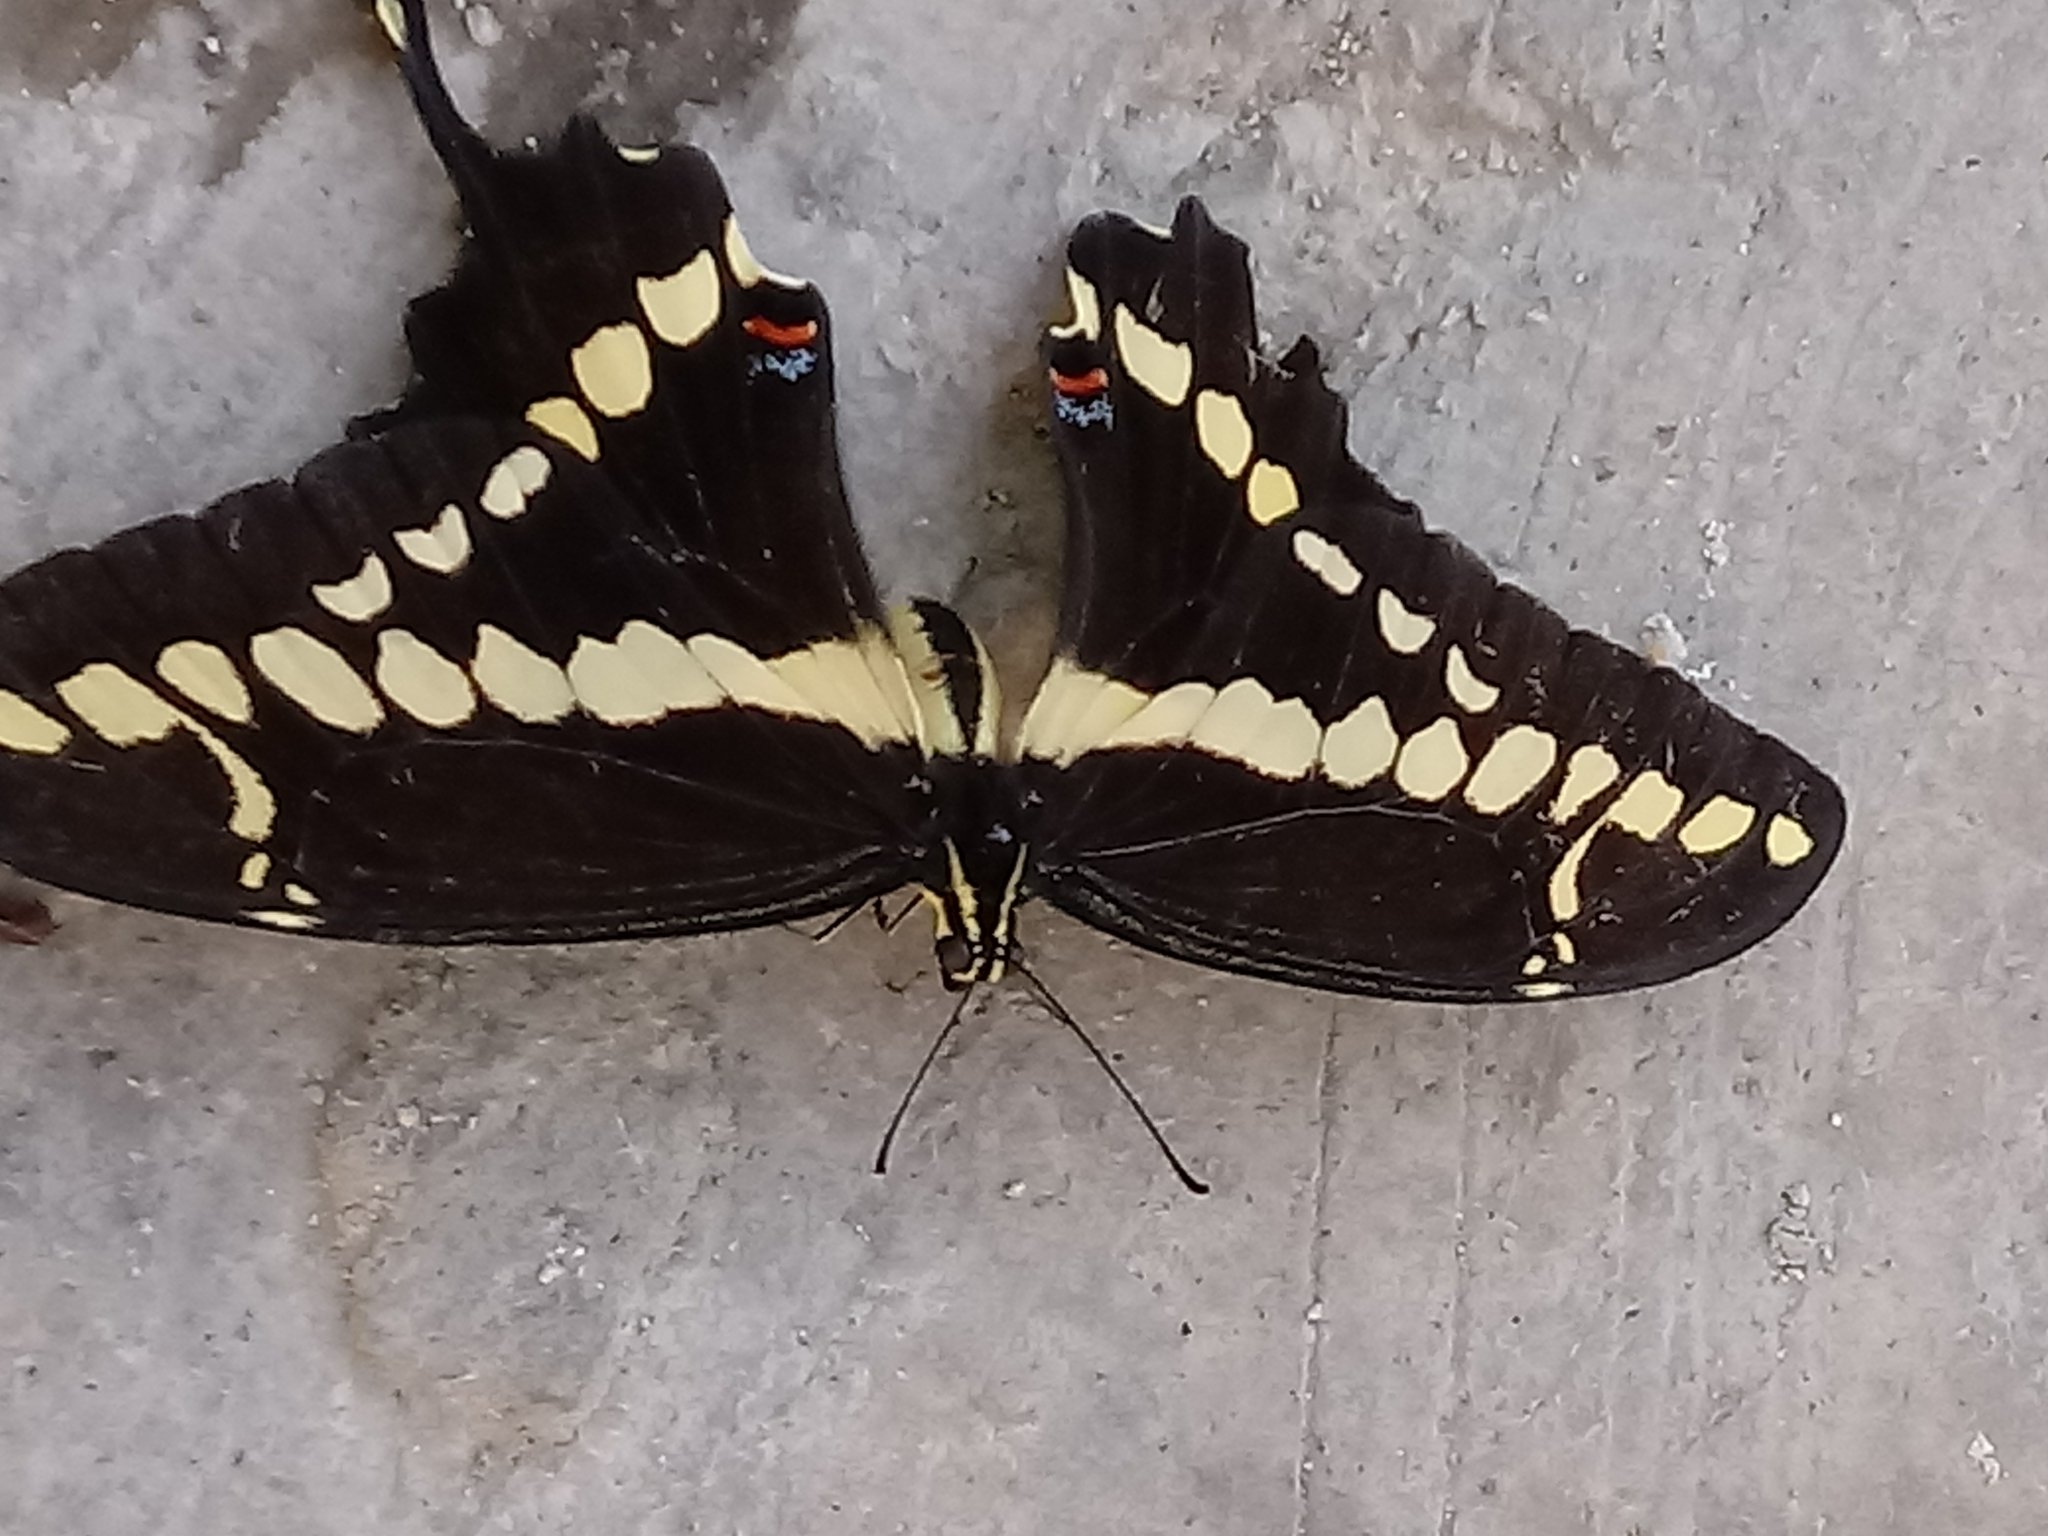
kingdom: Animalia
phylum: Arthropoda
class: Insecta
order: Lepidoptera
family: Papilionidae
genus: Papilio
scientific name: Papilio rumiko
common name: Western giant swallowtail
